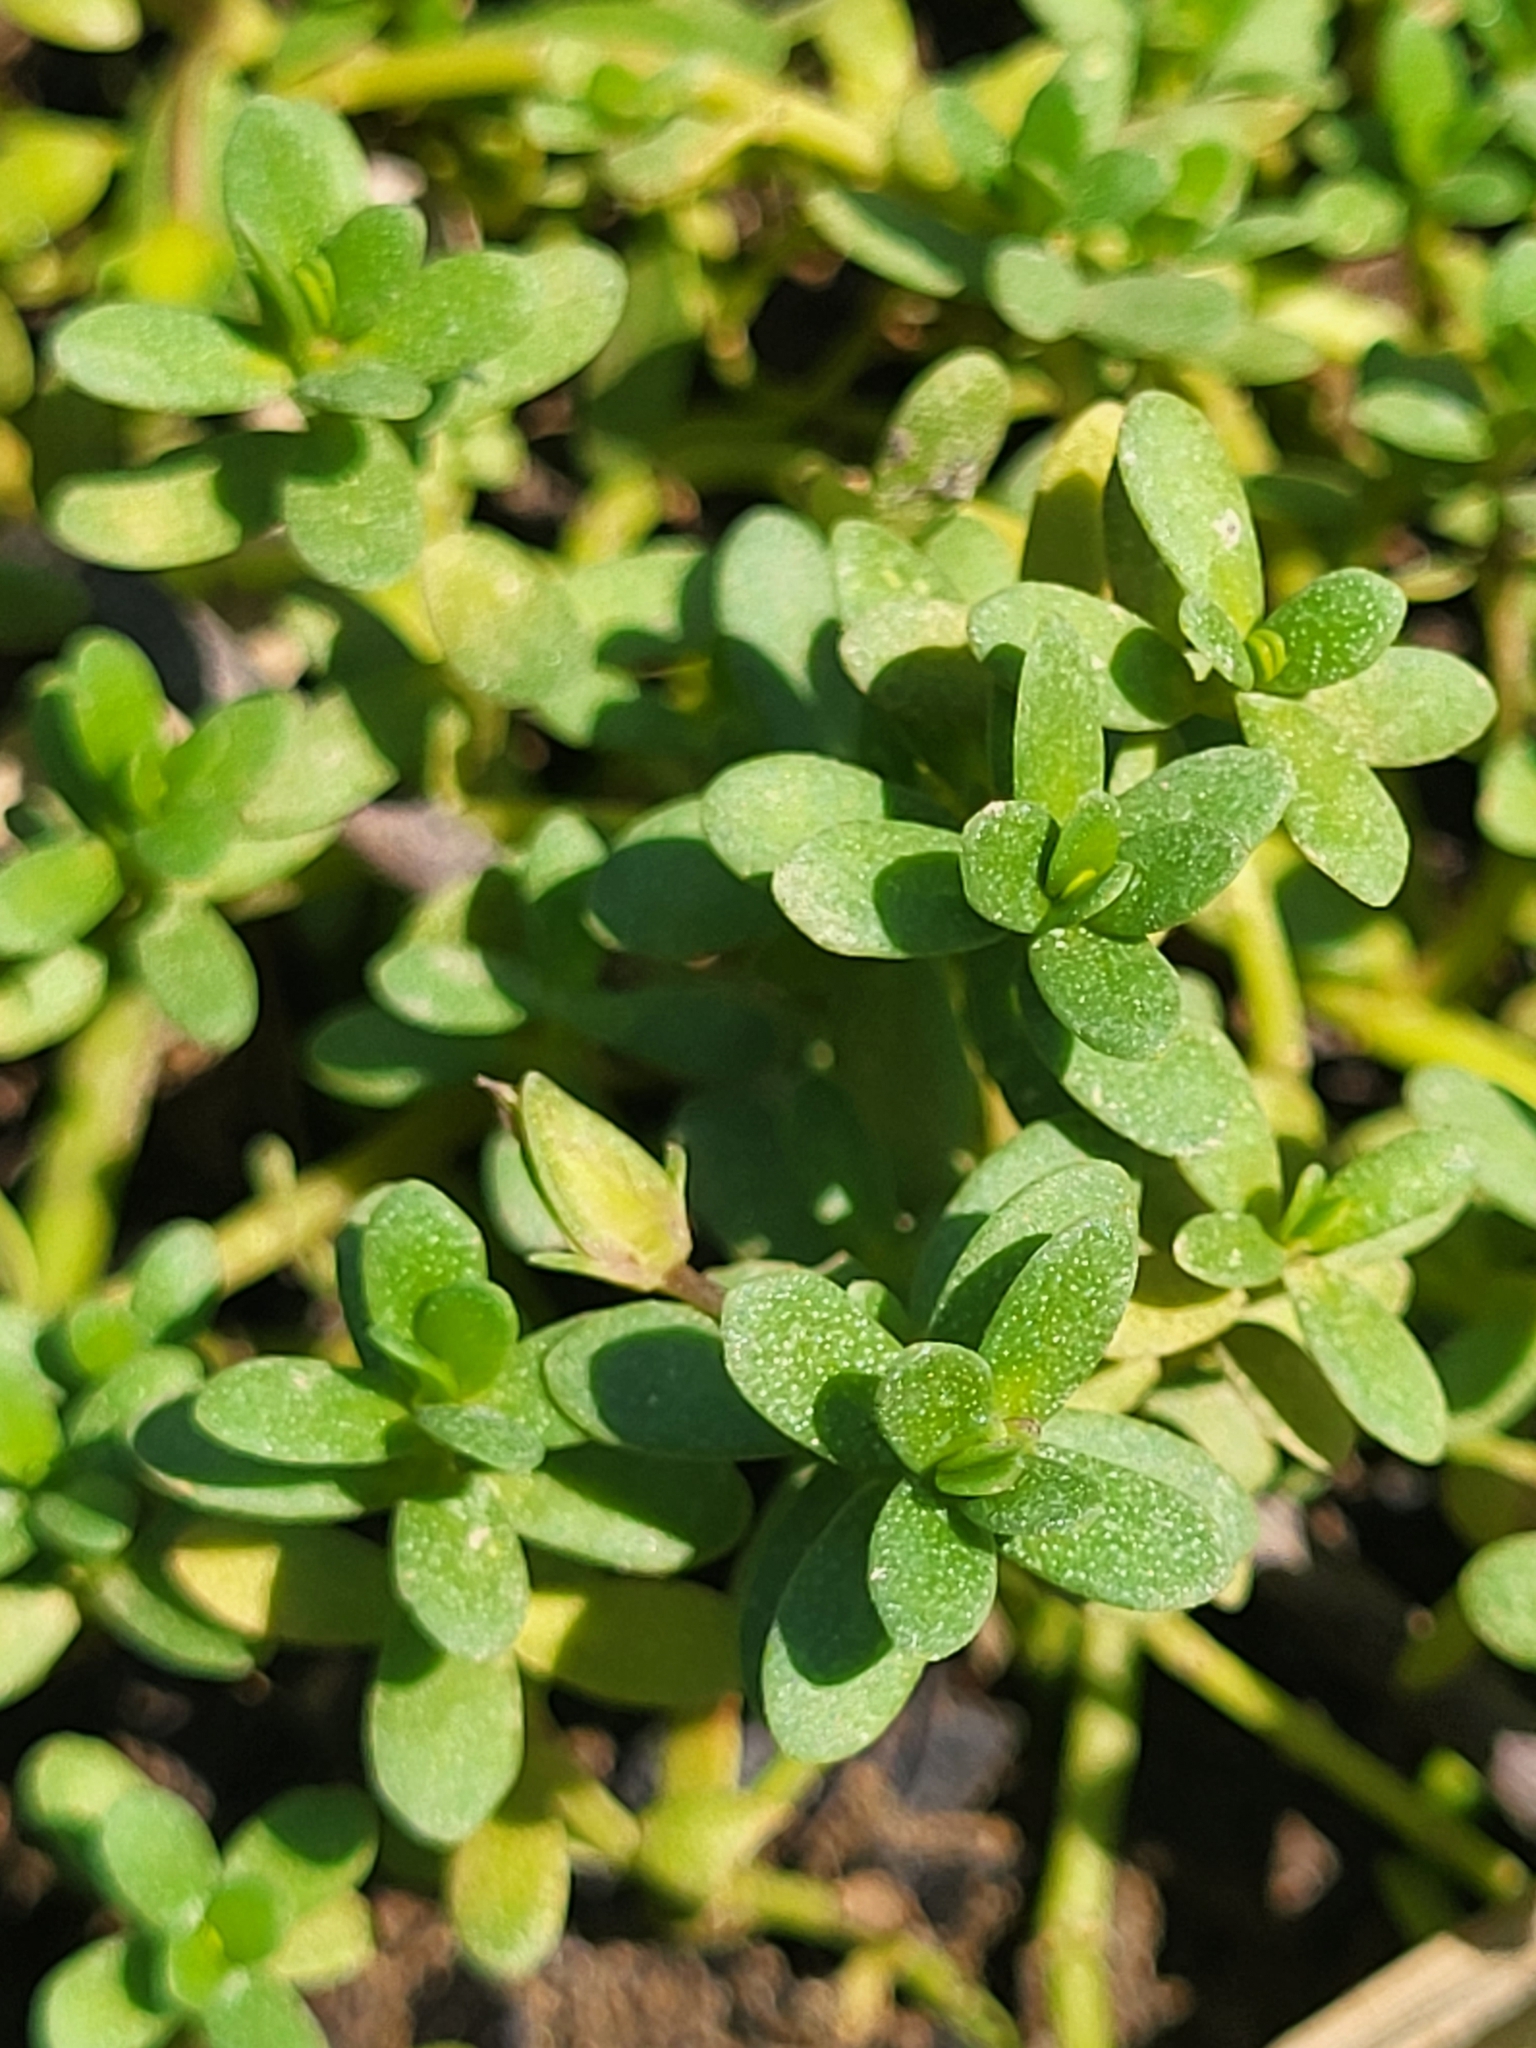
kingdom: Plantae
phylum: Tracheophyta
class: Magnoliopsida
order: Lamiales
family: Plantaginaceae
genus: Bacopa
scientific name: Bacopa monnieri
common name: Indian-pennywort
